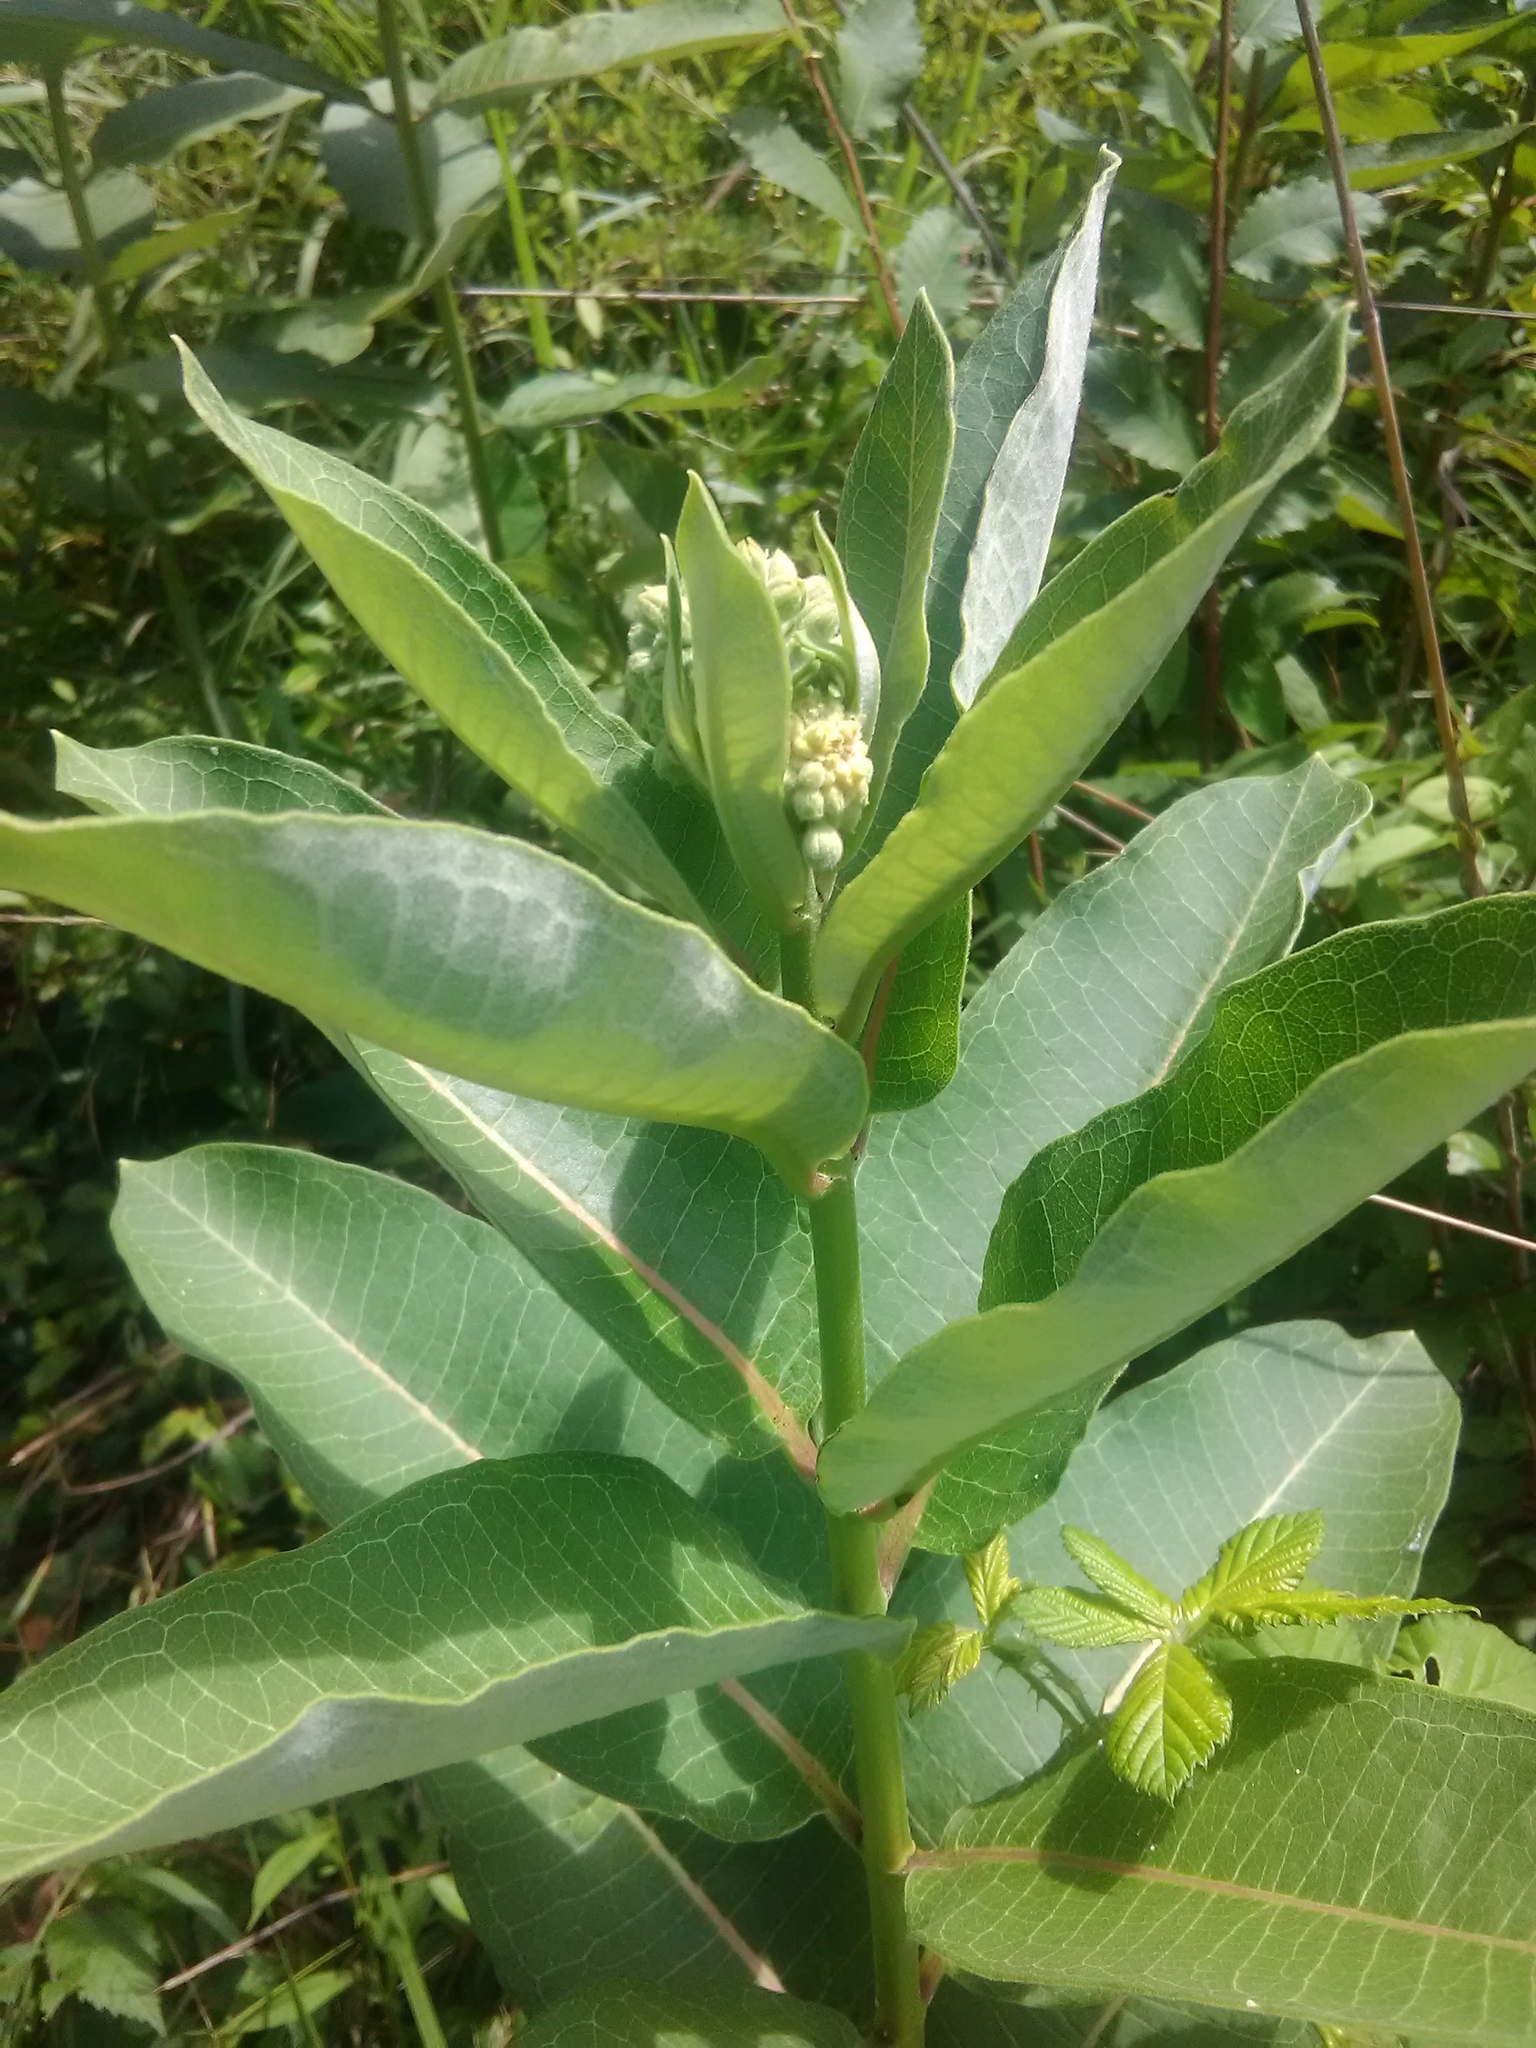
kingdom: Plantae
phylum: Tracheophyta
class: Magnoliopsida
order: Gentianales
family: Apocynaceae
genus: Asclepias
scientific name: Asclepias syriaca
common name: Common milkweed
